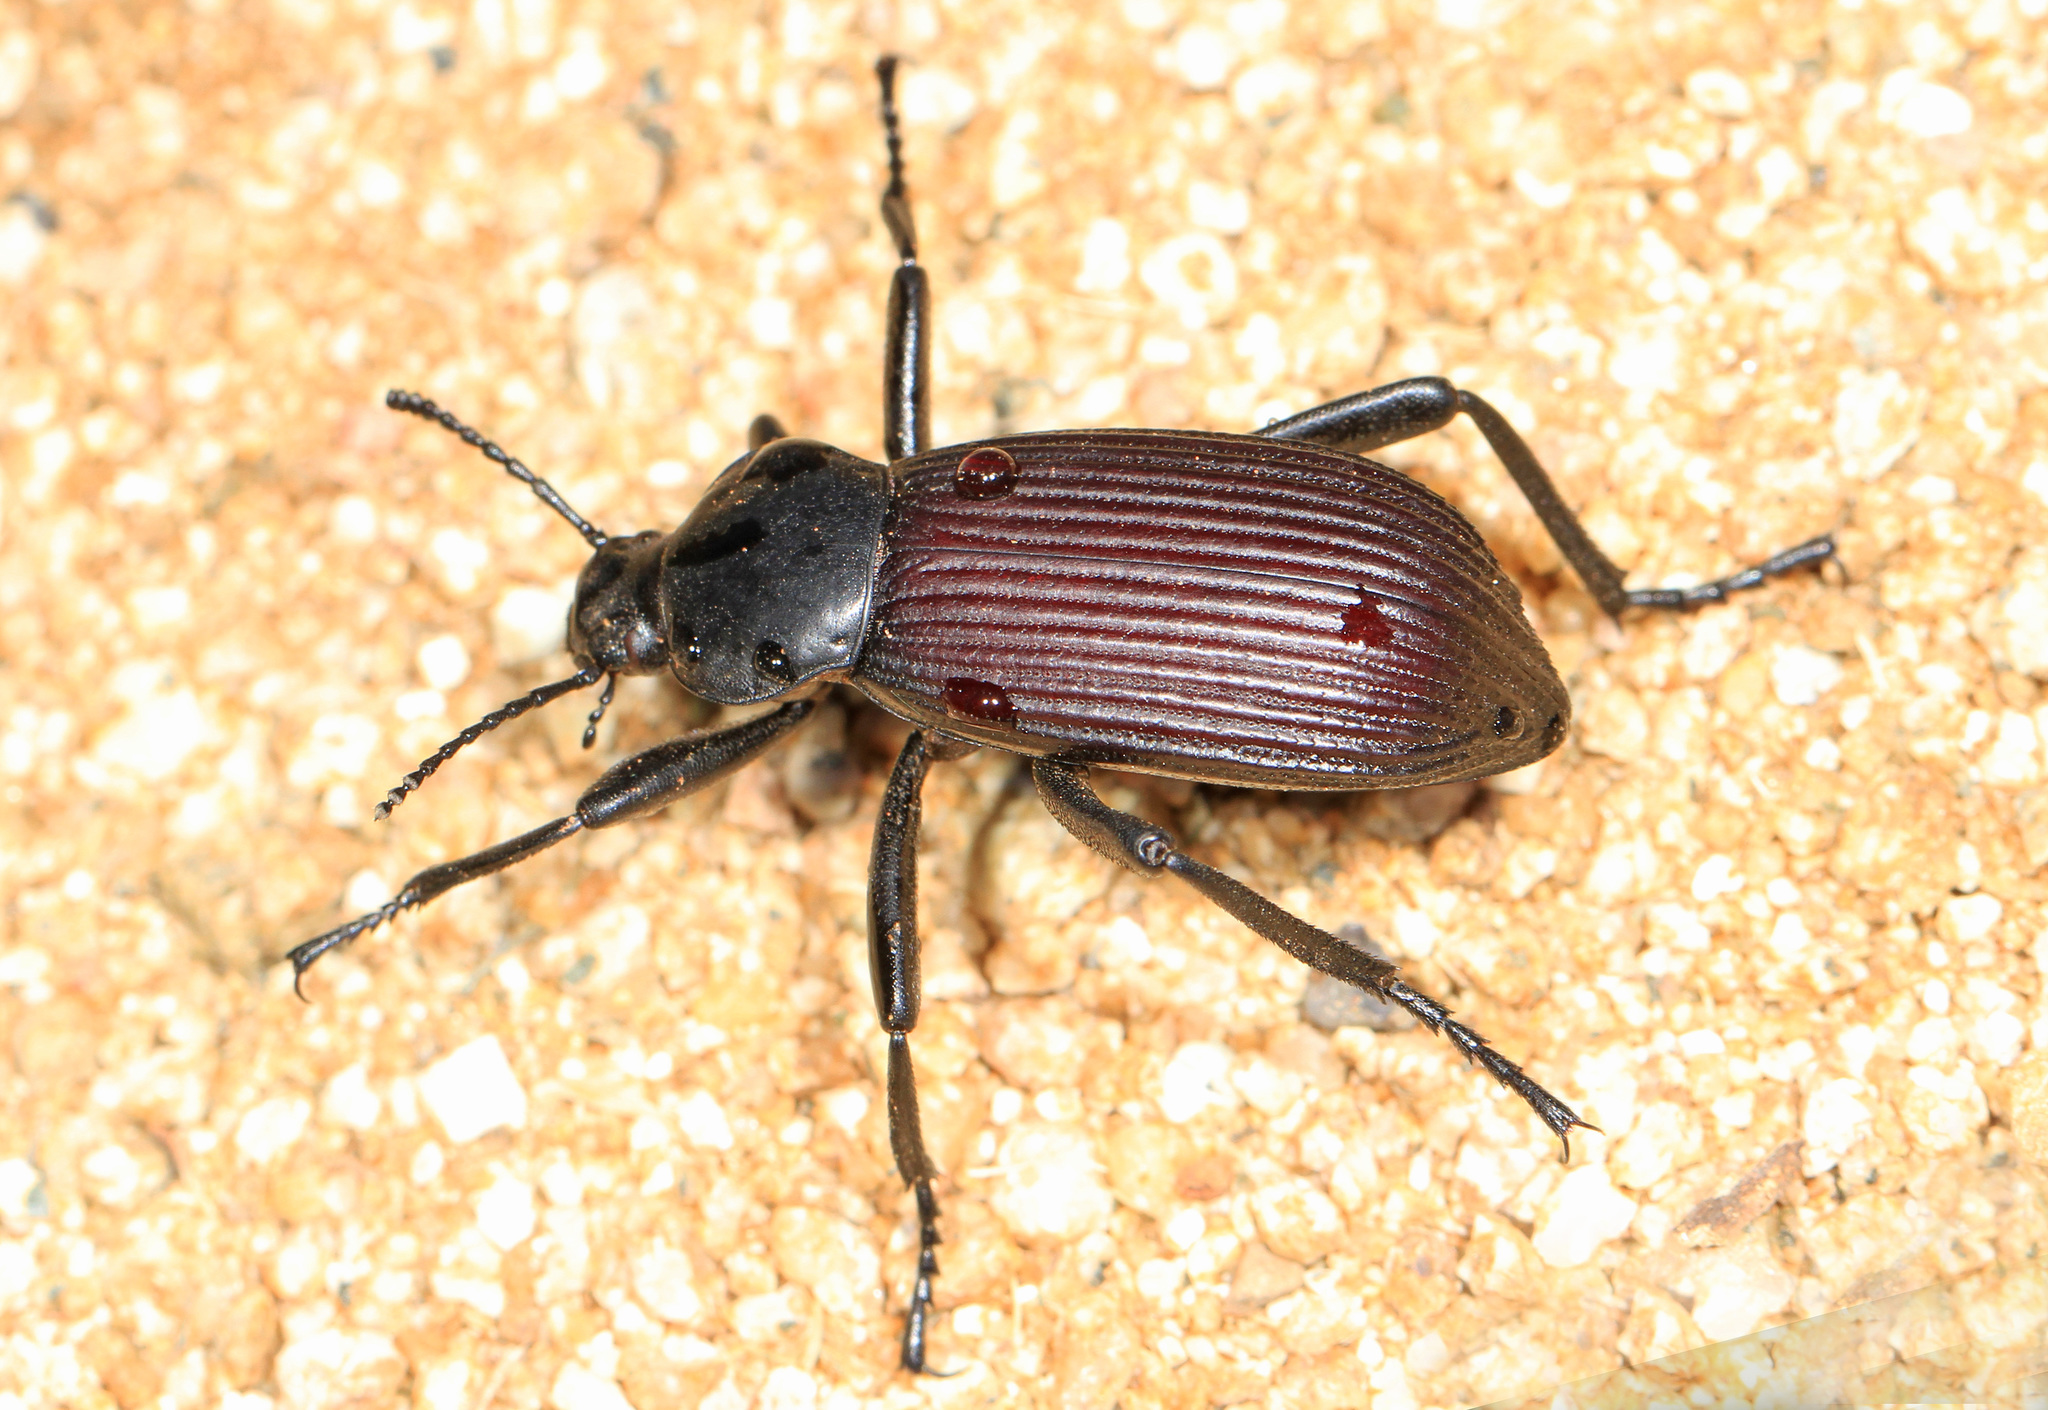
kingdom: Animalia
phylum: Arthropoda
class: Insecta
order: Coleoptera
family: Tenebrionidae
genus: Eleodes
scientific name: Eleodes obscura
